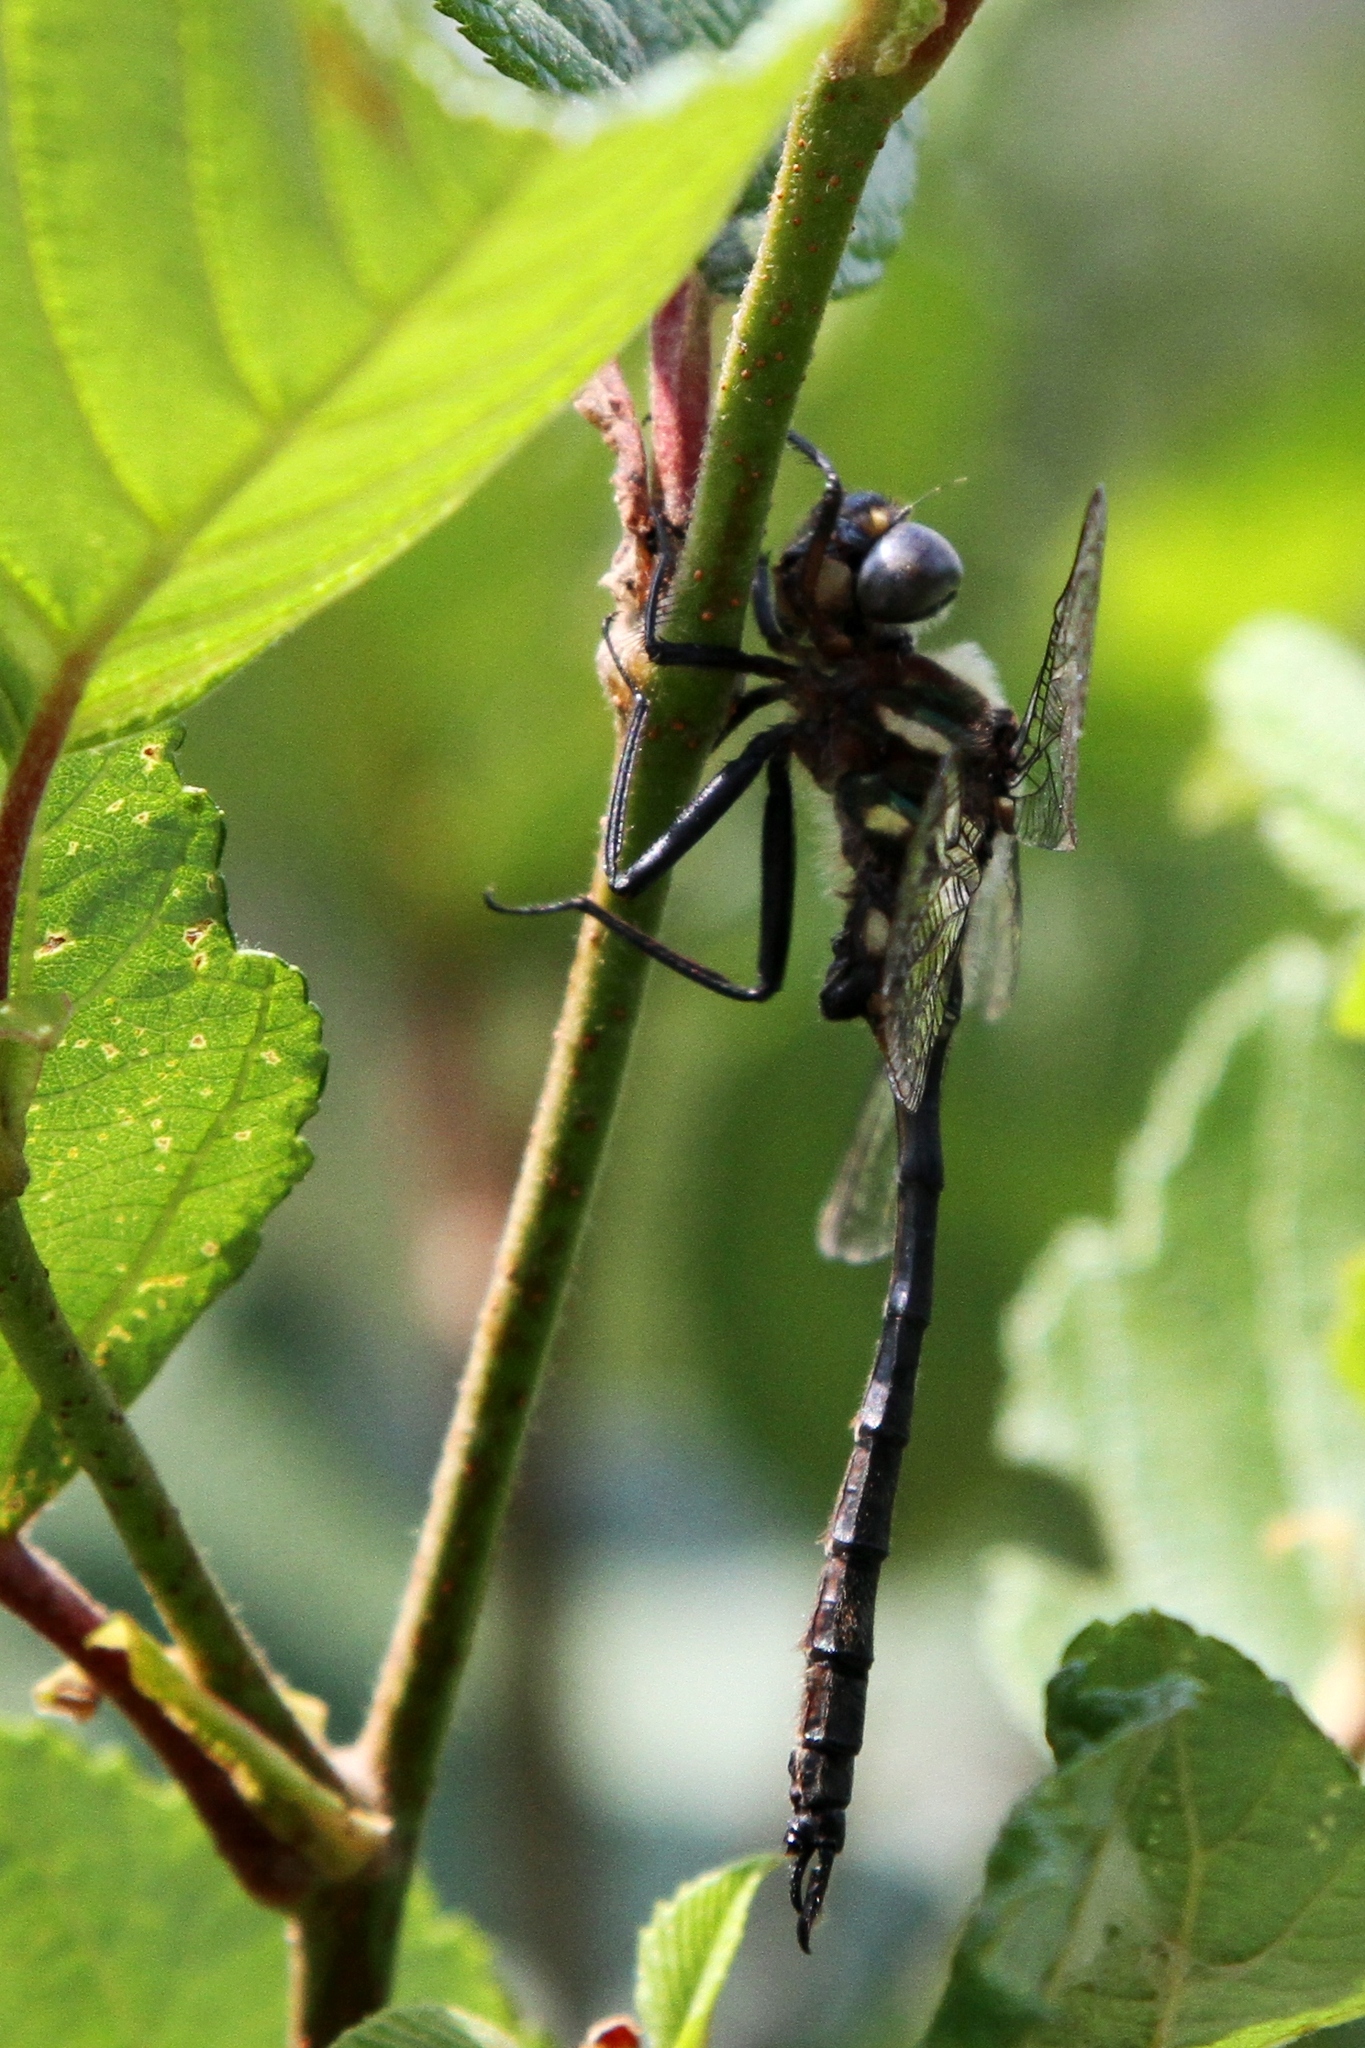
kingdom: Animalia
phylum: Arthropoda
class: Insecta
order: Odonata
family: Corduliidae
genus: Somatochlora
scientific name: Somatochlora elongata
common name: Ski-tipped emerald
